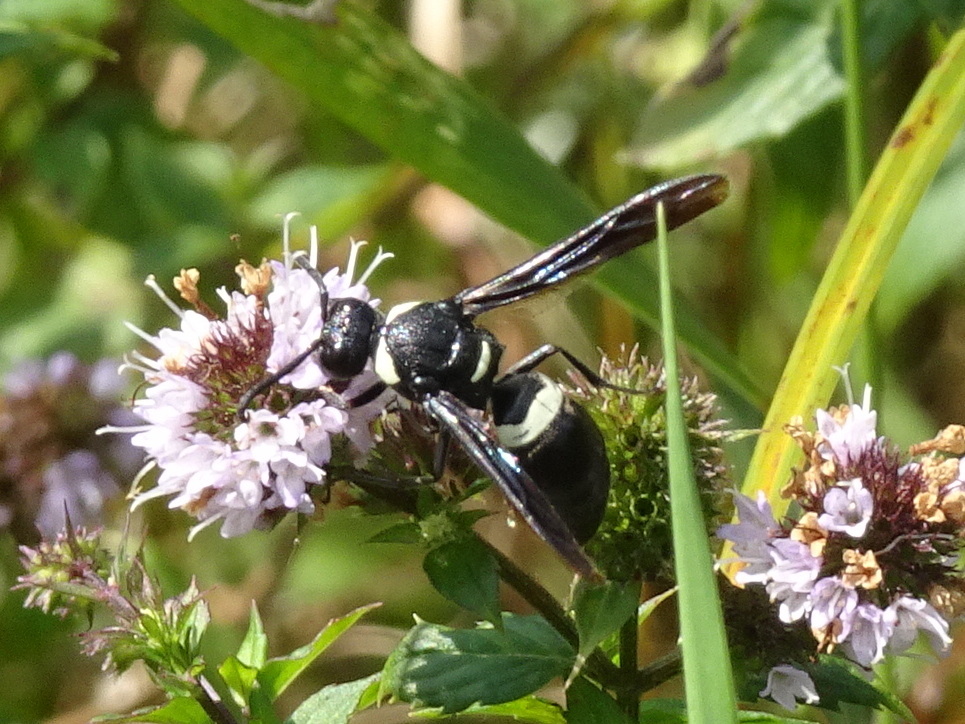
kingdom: Animalia
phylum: Arthropoda
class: Insecta
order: Hymenoptera
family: Eumenidae
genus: Monobia
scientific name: Monobia quadridens
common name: Four-toothed mason wasp
